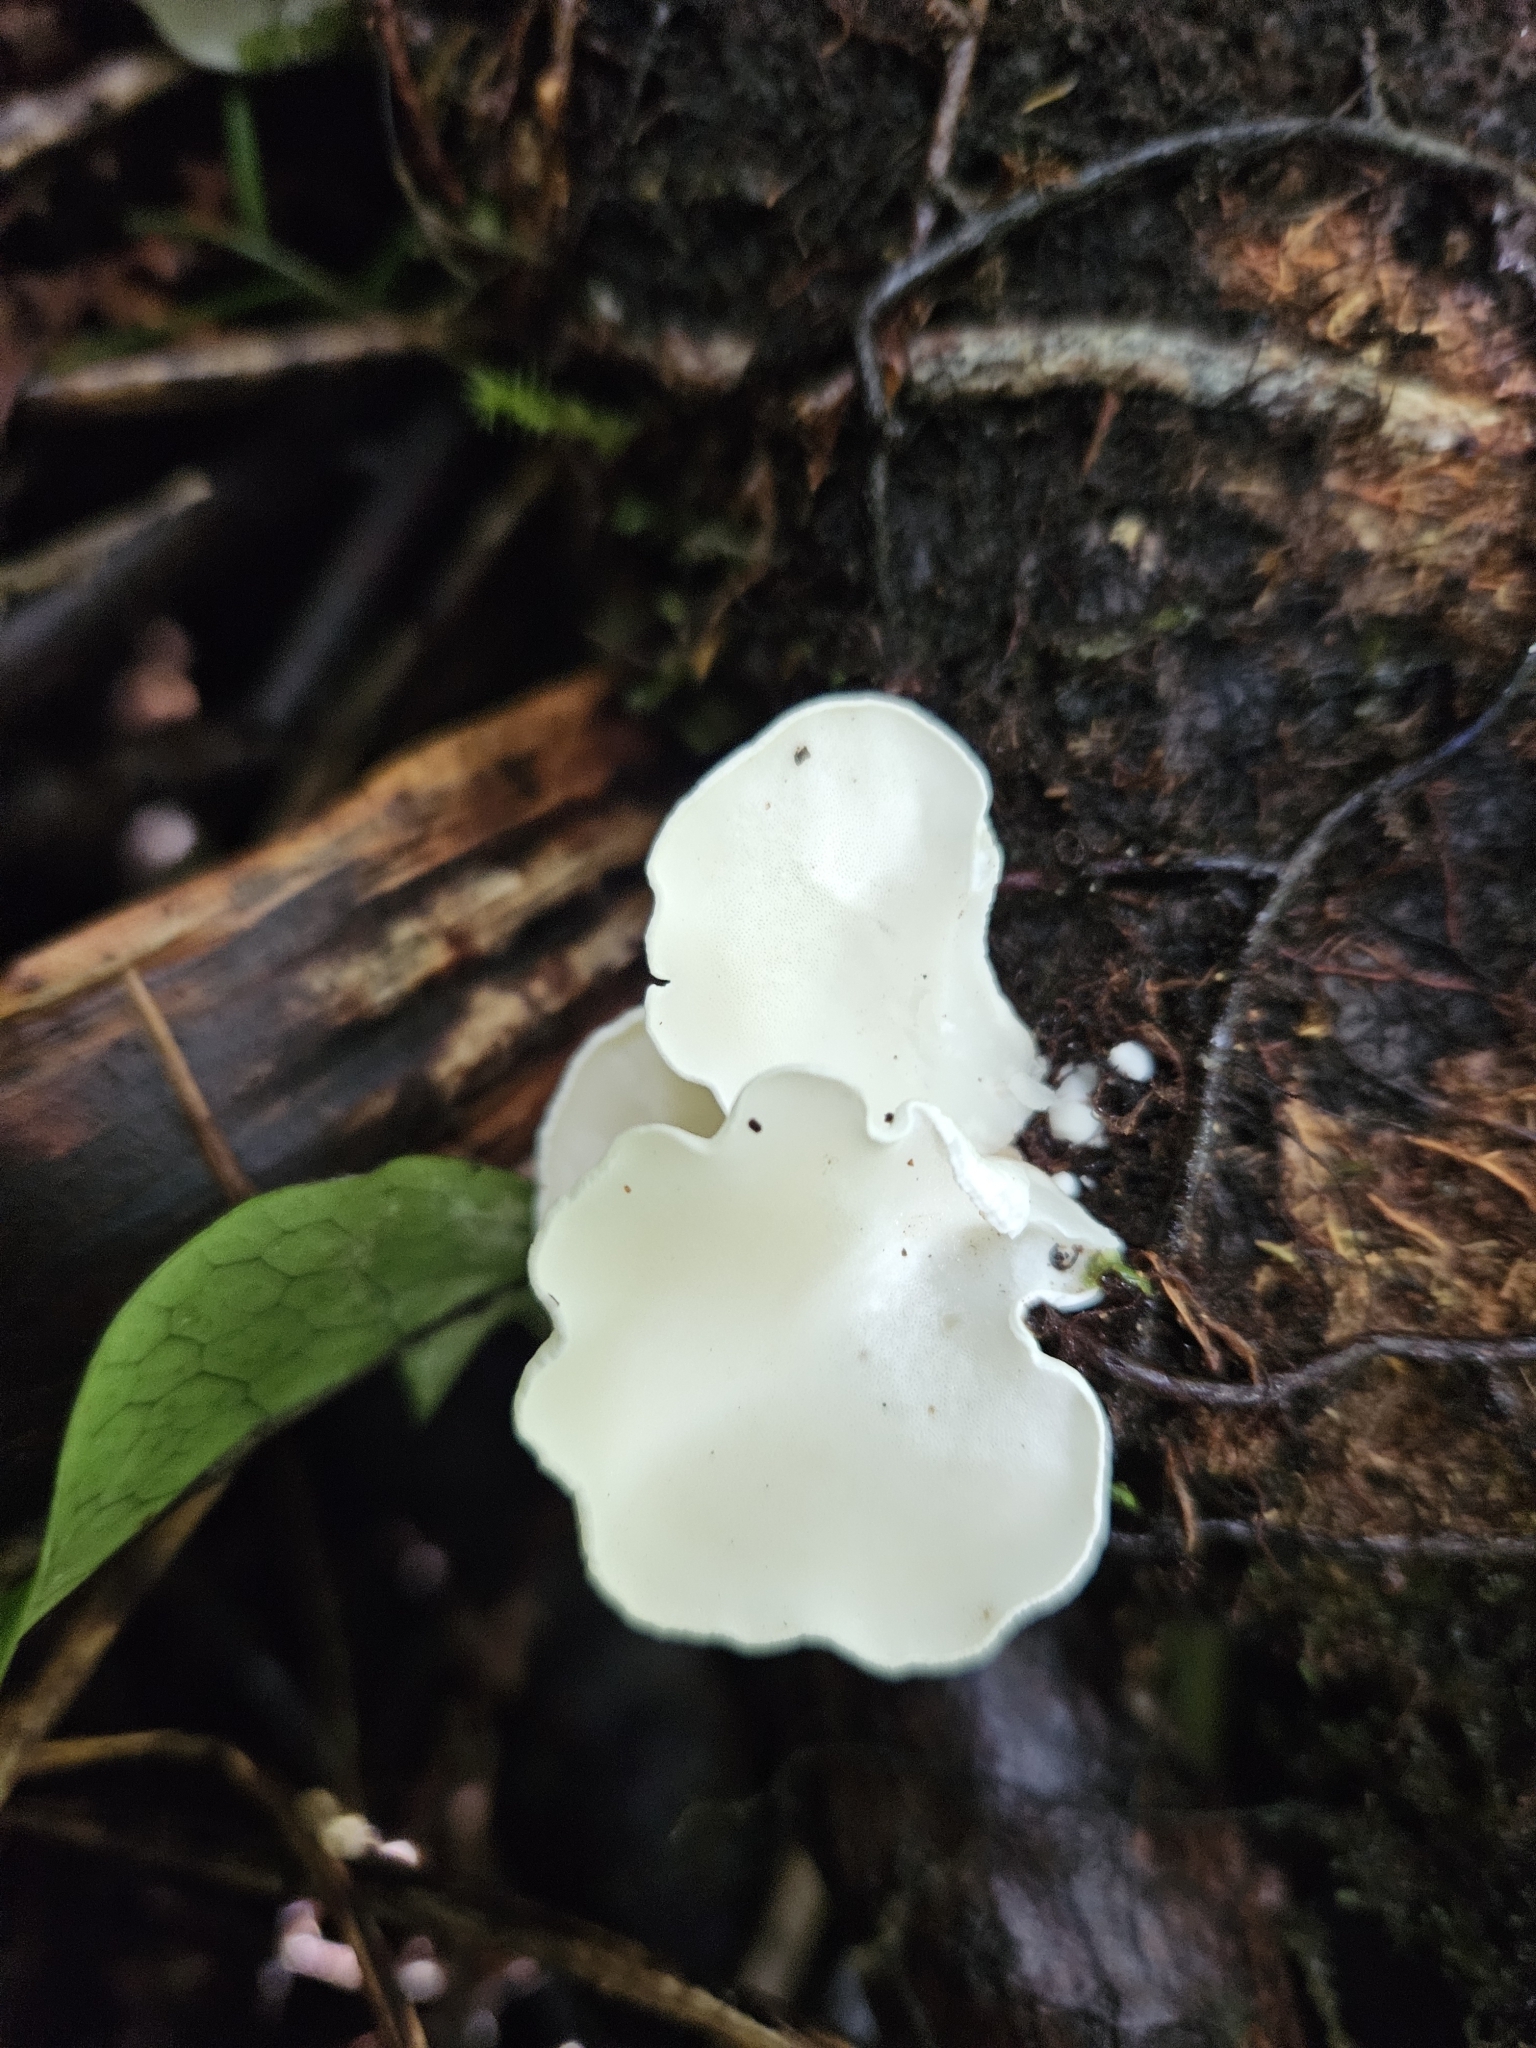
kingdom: Fungi
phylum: Basidiomycota
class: Agaricomycetes
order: Polyporales
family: Irpicaceae
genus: Gloeoporus
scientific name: Gloeoporus phlebophorus
